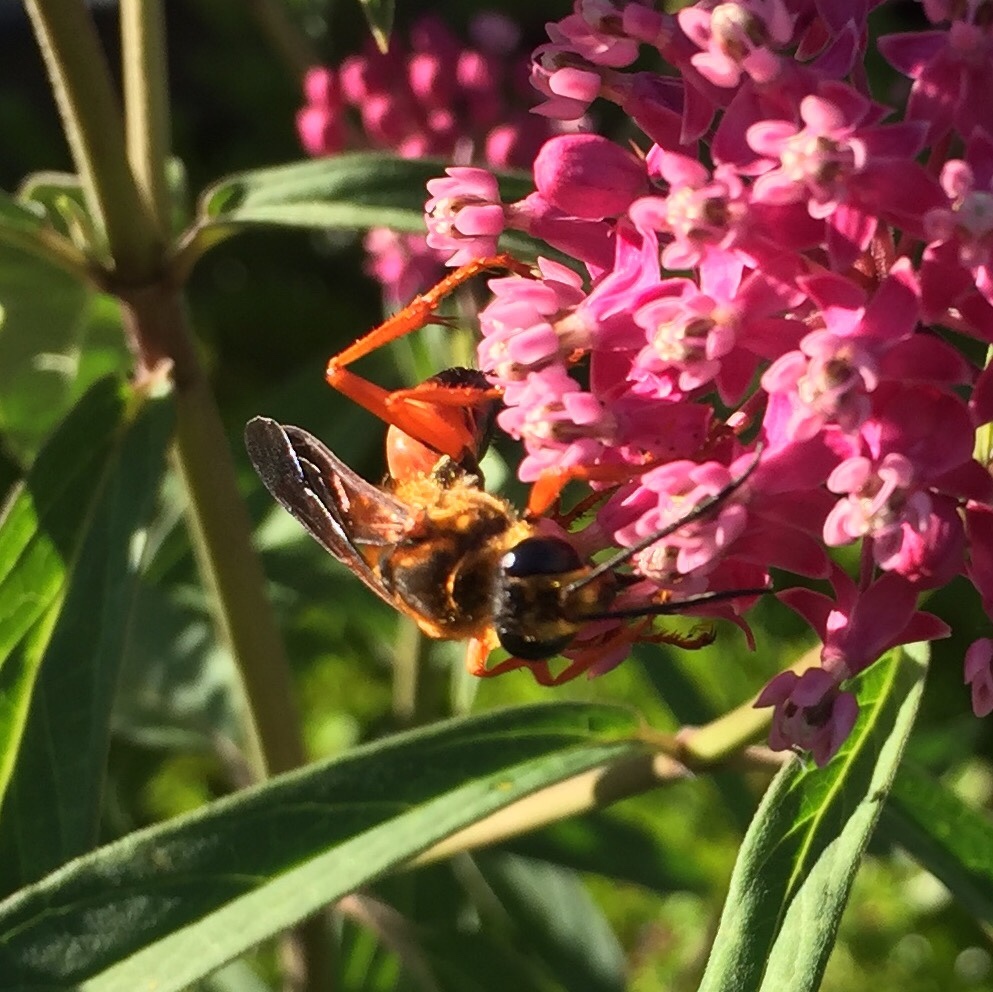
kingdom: Animalia
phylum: Arthropoda
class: Insecta
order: Hymenoptera
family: Sphecidae
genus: Sphex
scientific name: Sphex ichneumoneus
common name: Great golden digger wasp
